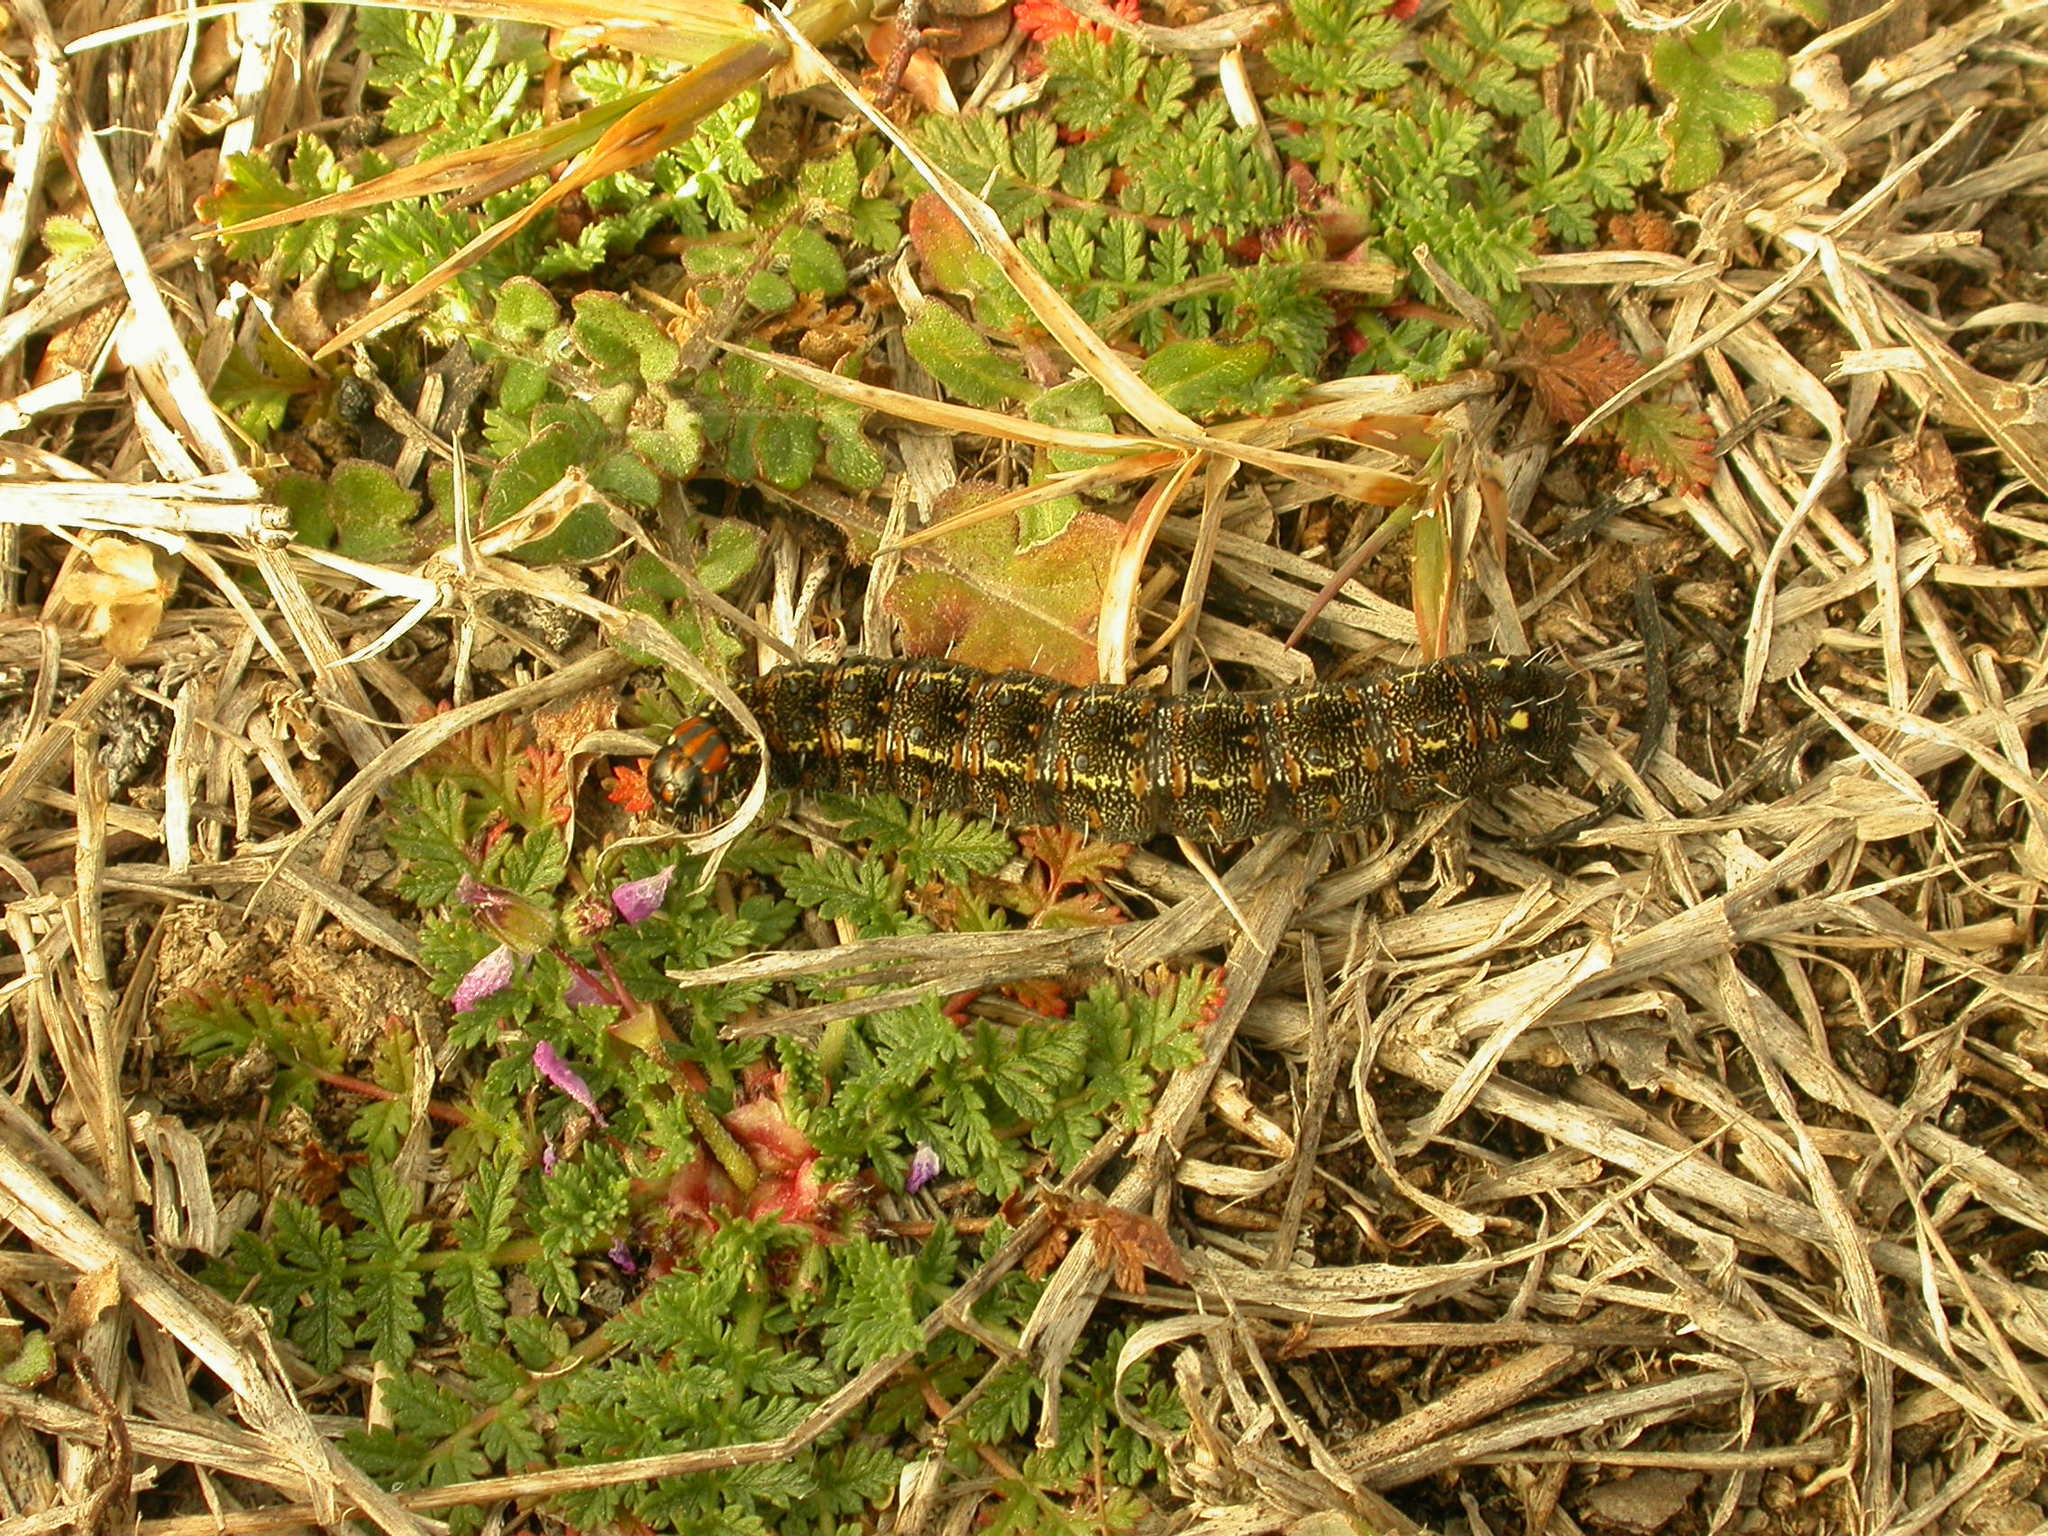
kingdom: Animalia
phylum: Arthropoda
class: Insecta
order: Lepidoptera
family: Noctuidae
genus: Apina
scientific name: Apina callisto
